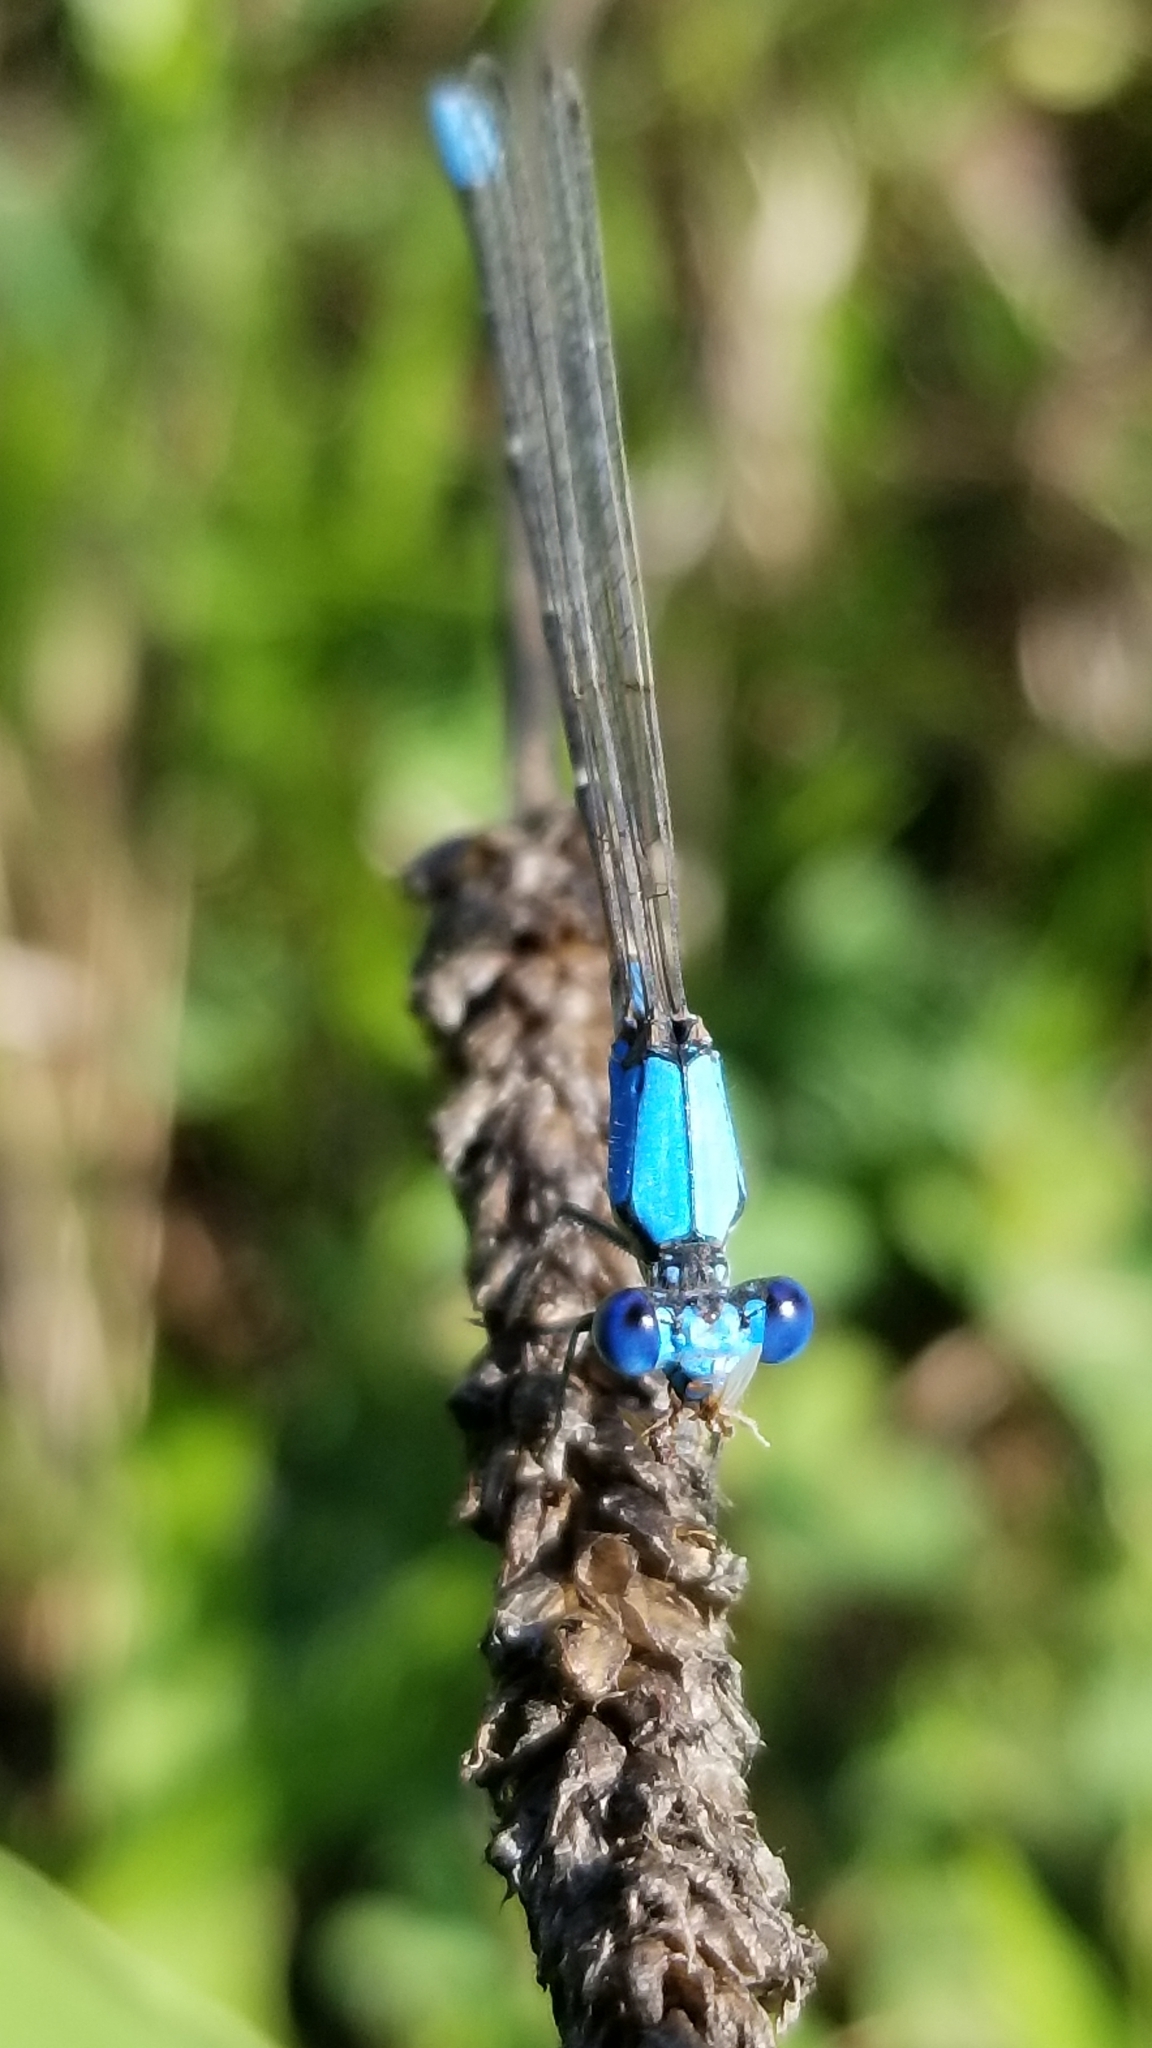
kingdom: Animalia
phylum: Arthropoda
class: Insecta
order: Odonata
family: Coenagrionidae
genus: Argia
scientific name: Argia apicalis
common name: Blue-fronted dancer
